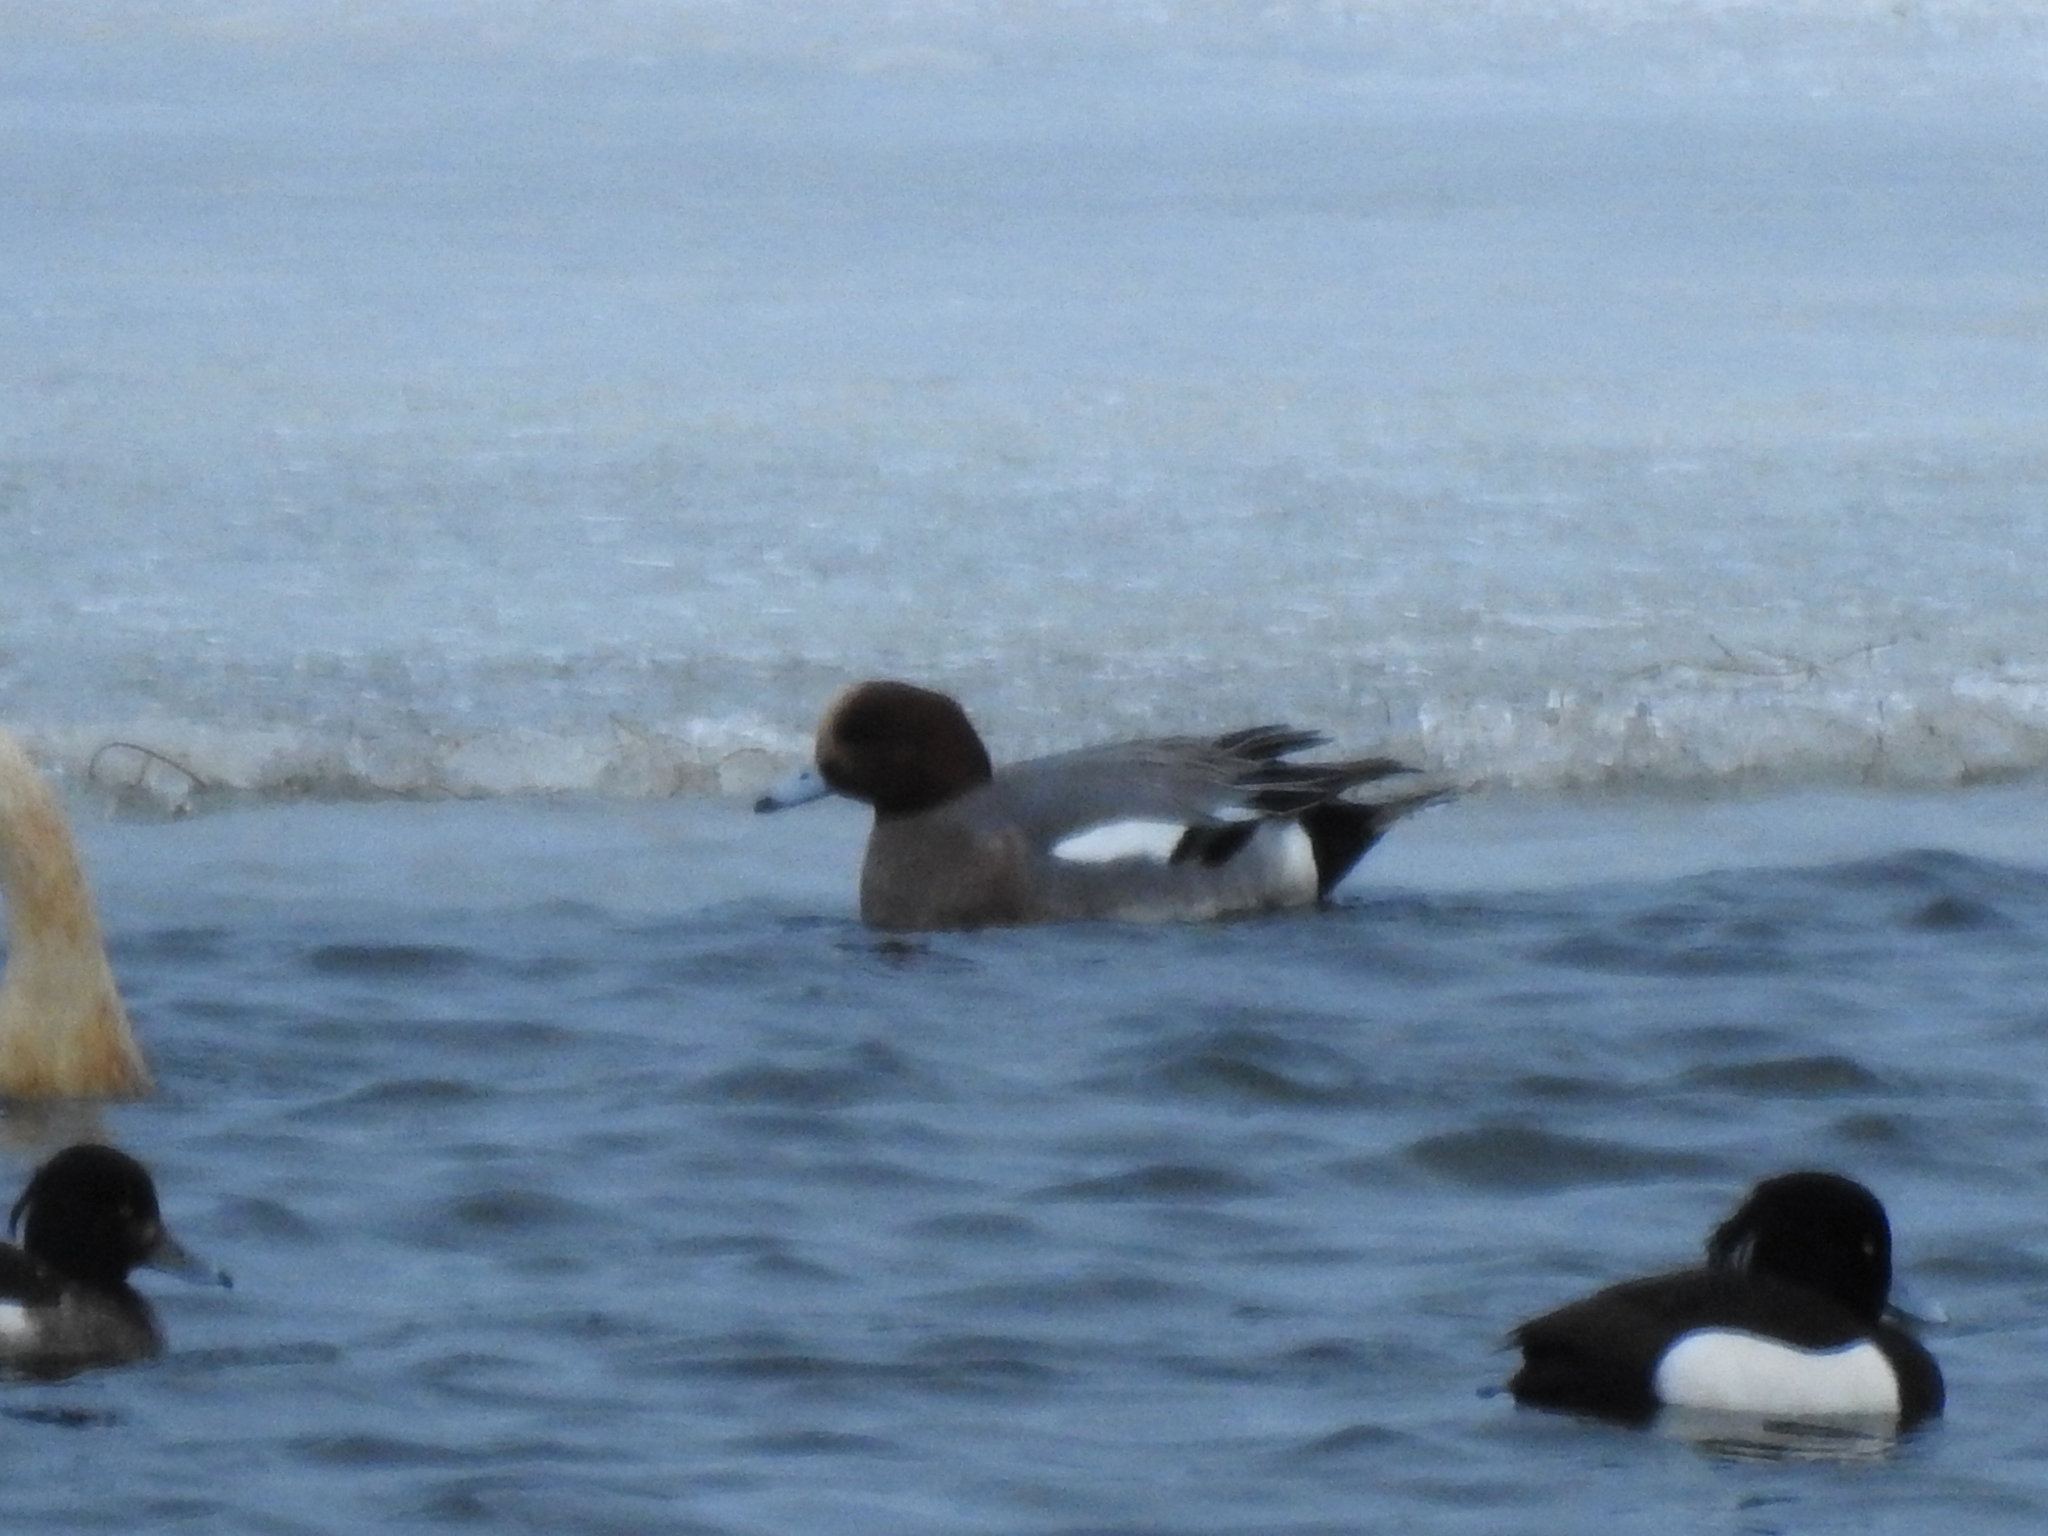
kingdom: Animalia
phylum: Chordata
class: Aves
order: Anseriformes
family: Anatidae
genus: Mareca
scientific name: Mareca penelope
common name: Eurasian wigeon
